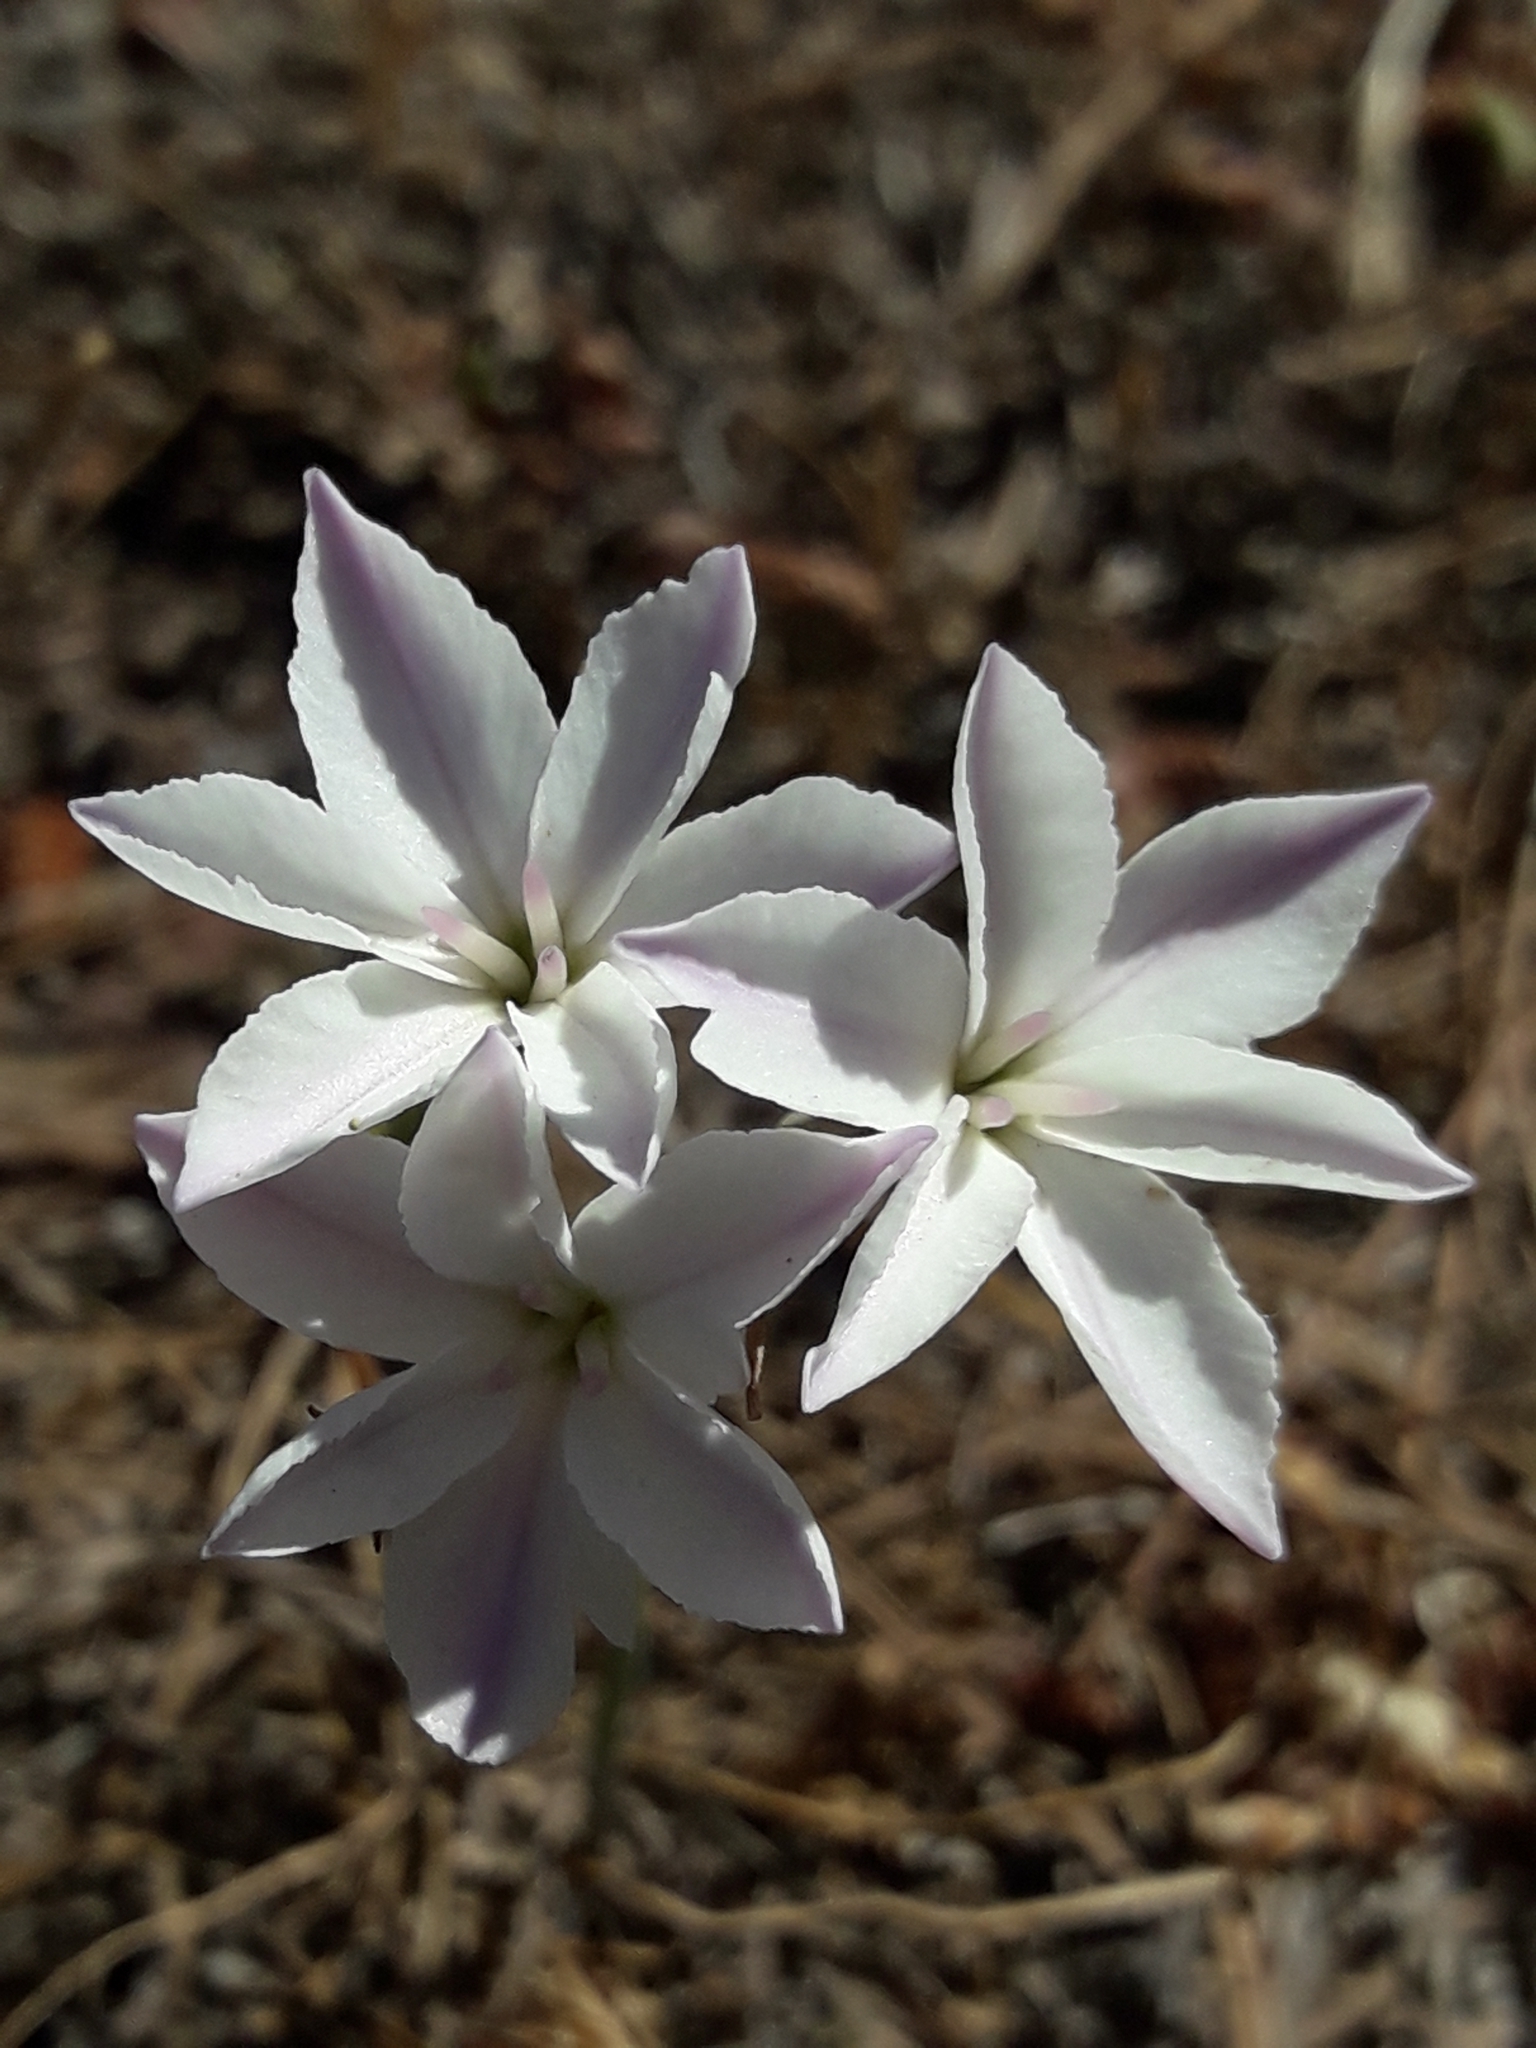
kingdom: Plantae
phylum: Tracheophyta
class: Liliopsida
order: Asparagales
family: Amaryllidaceae
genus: Leucocoryne
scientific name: Leucocoryne foetida
